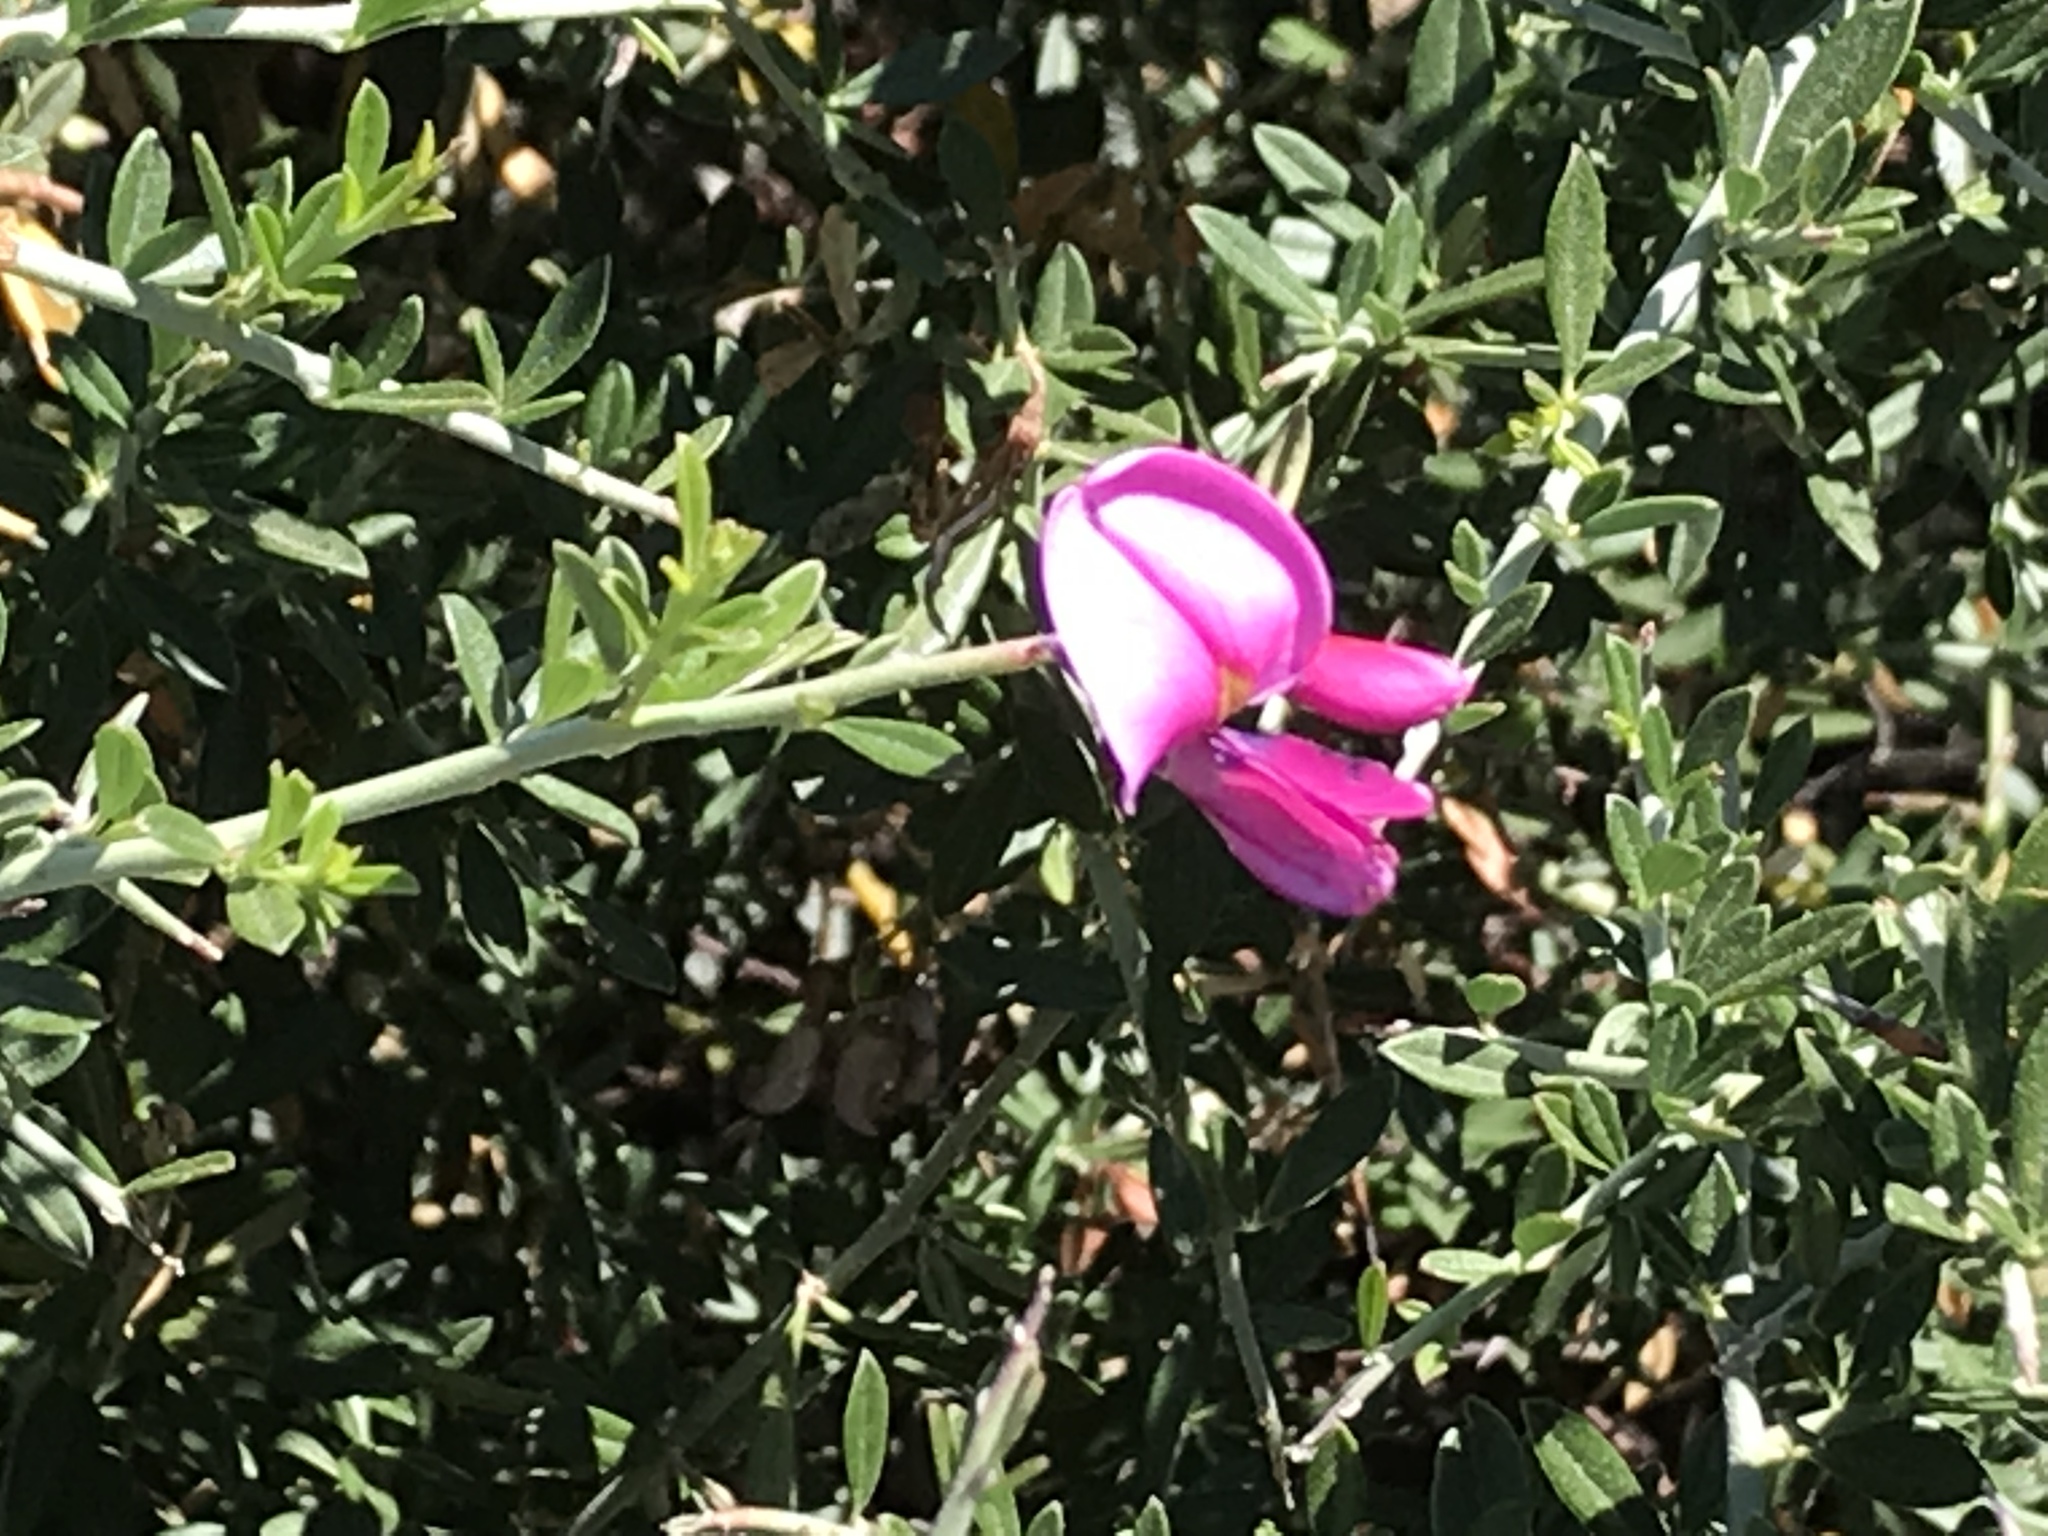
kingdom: Plantae
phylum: Tracheophyta
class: Magnoliopsida
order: Fabales
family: Fabaceae
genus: Pickeringia
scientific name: Pickeringia montana
